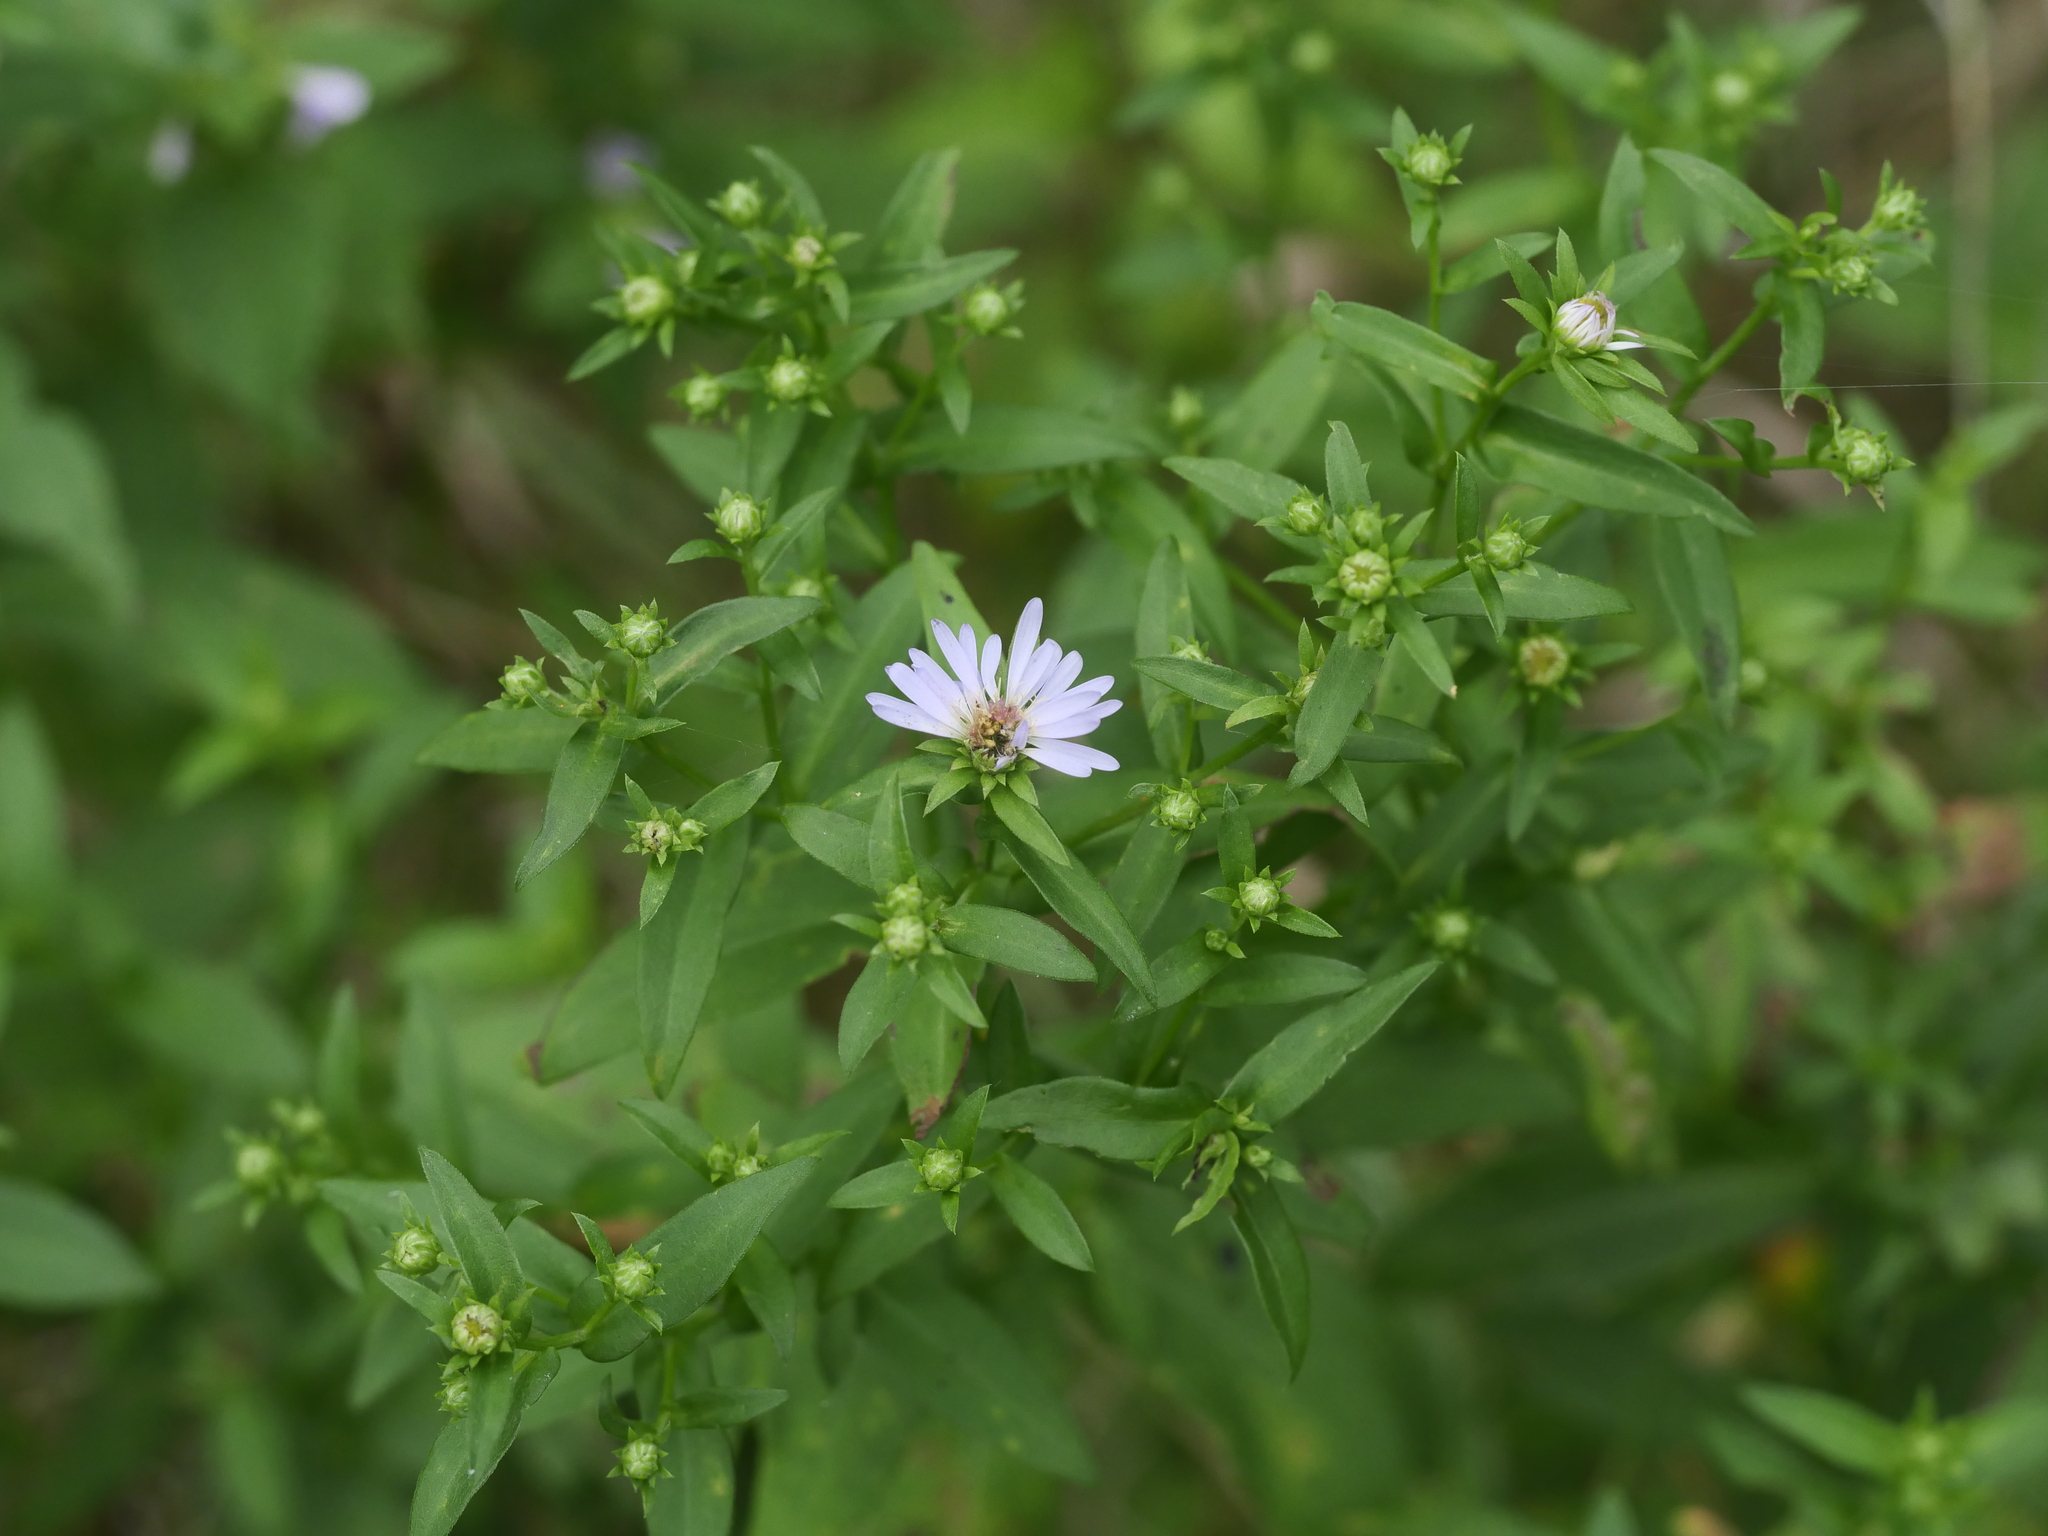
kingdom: Plantae
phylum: Tracheophyta
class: Magnoliopsida
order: Asterales
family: Asteraceae
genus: Symphyotrichum
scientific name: Symphyotrichum novi-belgii
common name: Michaelmas daisy
